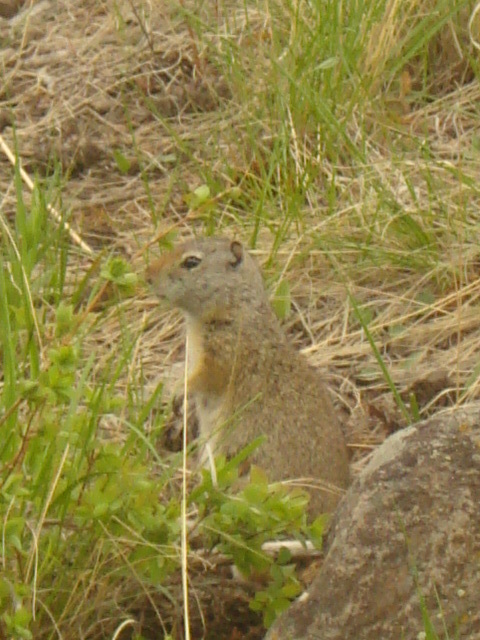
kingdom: Animalia
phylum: Chordata
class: Mammalia
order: Rodentia
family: Sciuridae
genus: Urocitellus
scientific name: Urocitellus armatus
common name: Uinta ground squirrel
